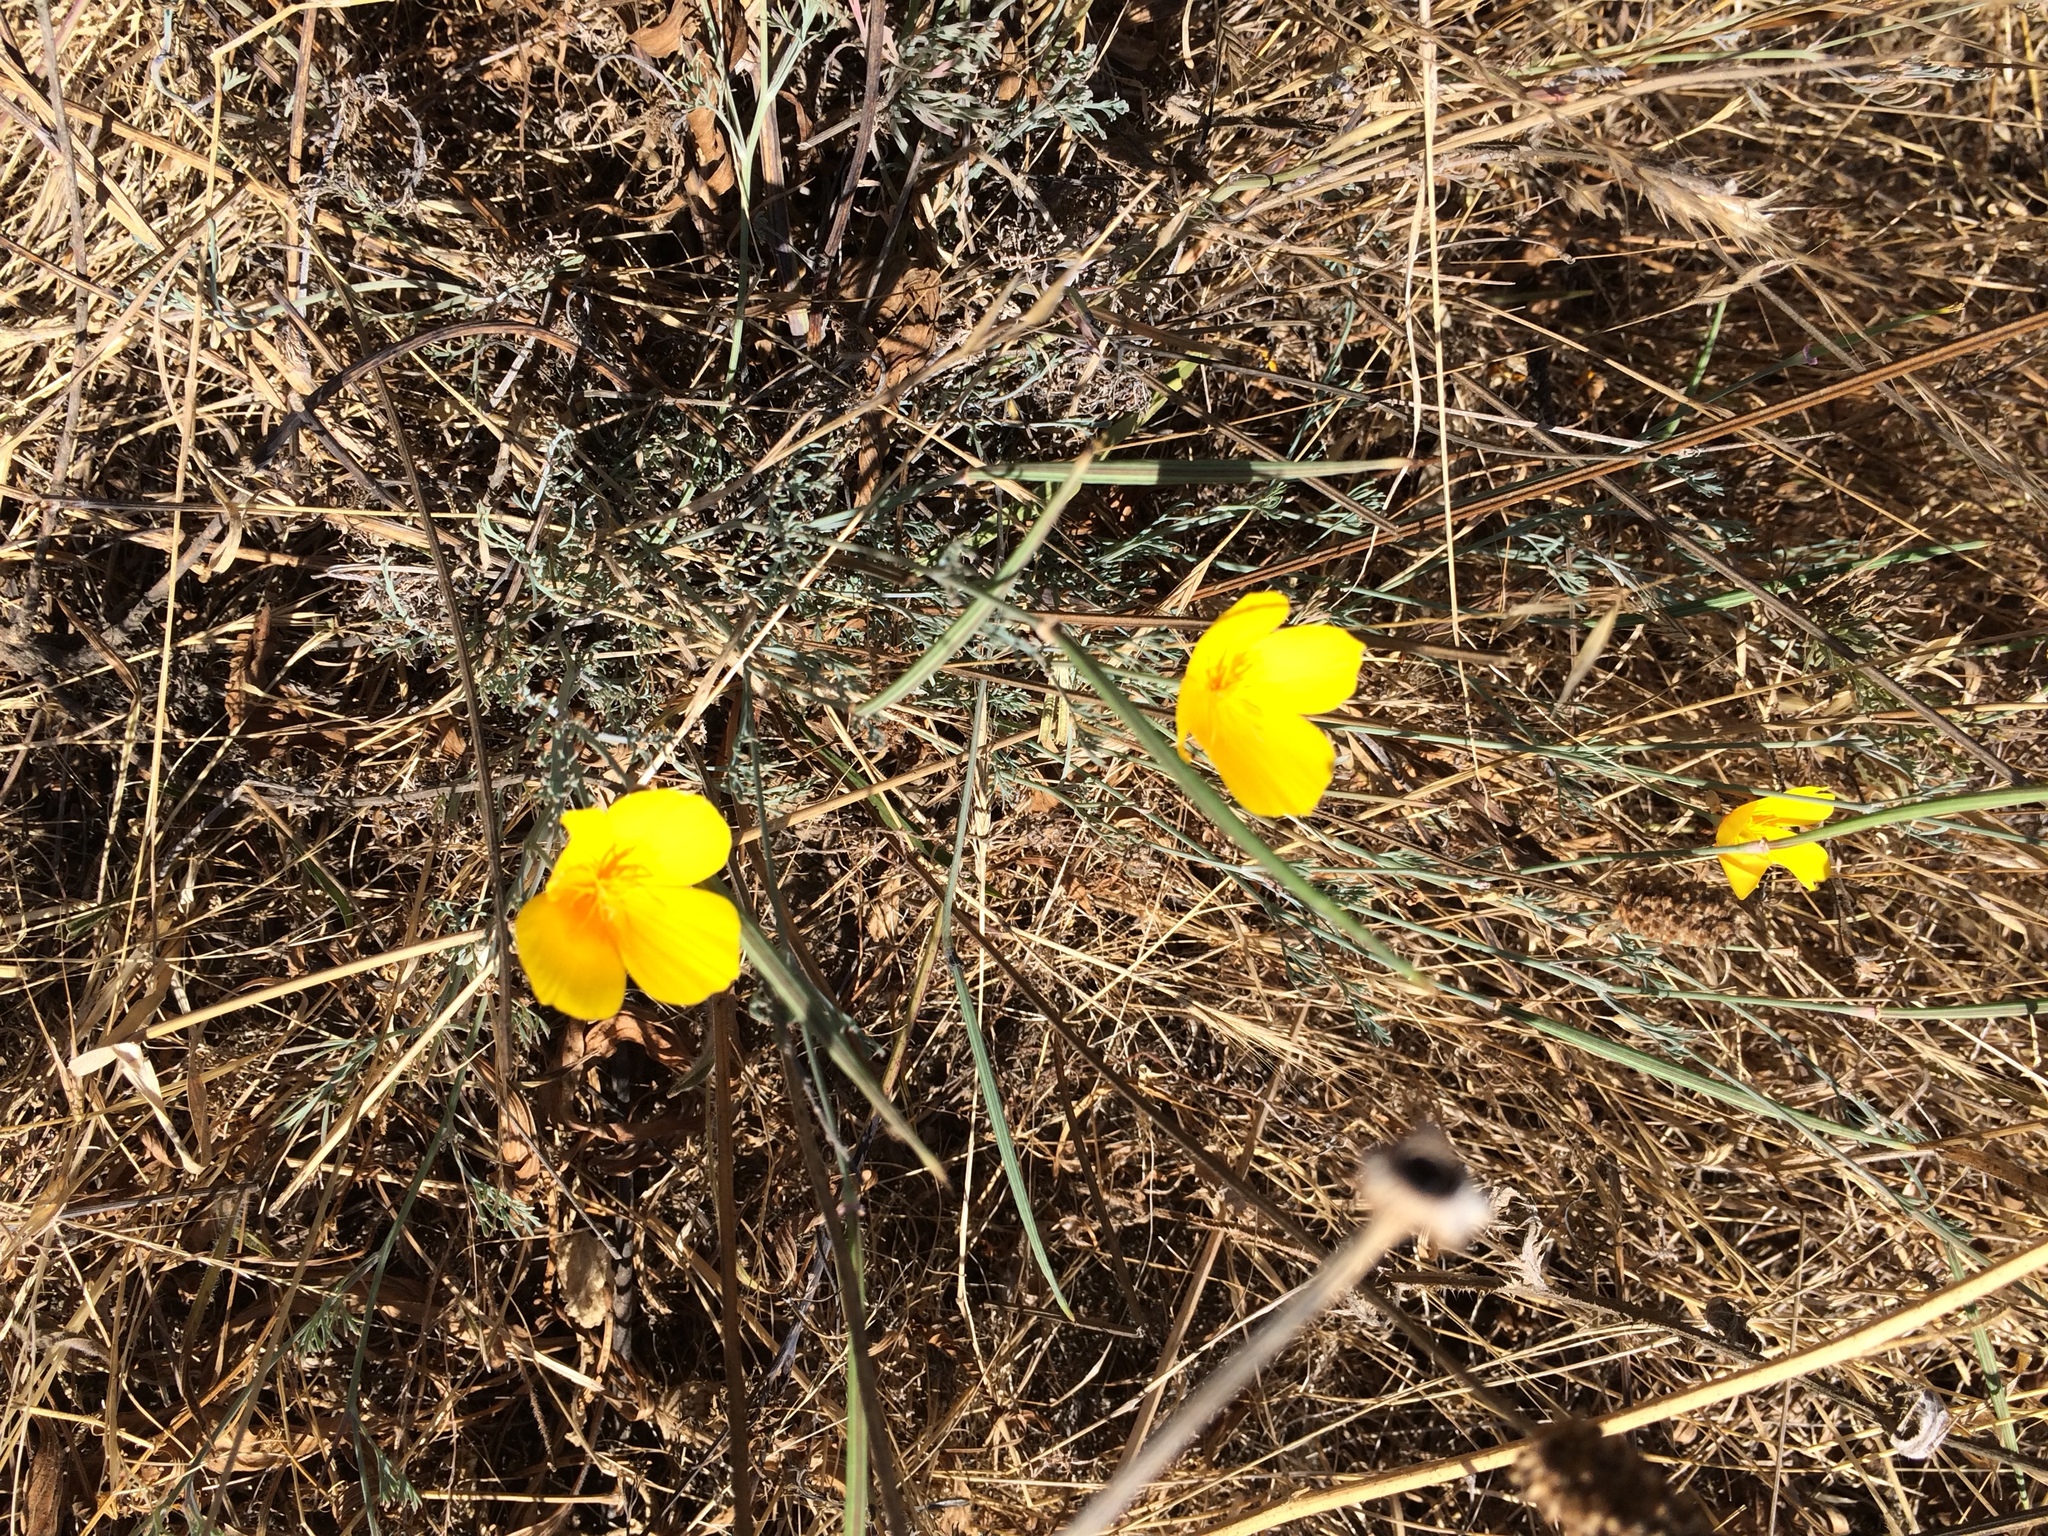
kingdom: Plantae
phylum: Tracheophyta
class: Magnoliopsida
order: Ranunculales
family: Papaveraceae
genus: Eschscholzia
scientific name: Eschscholzia californica
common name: California poppy
